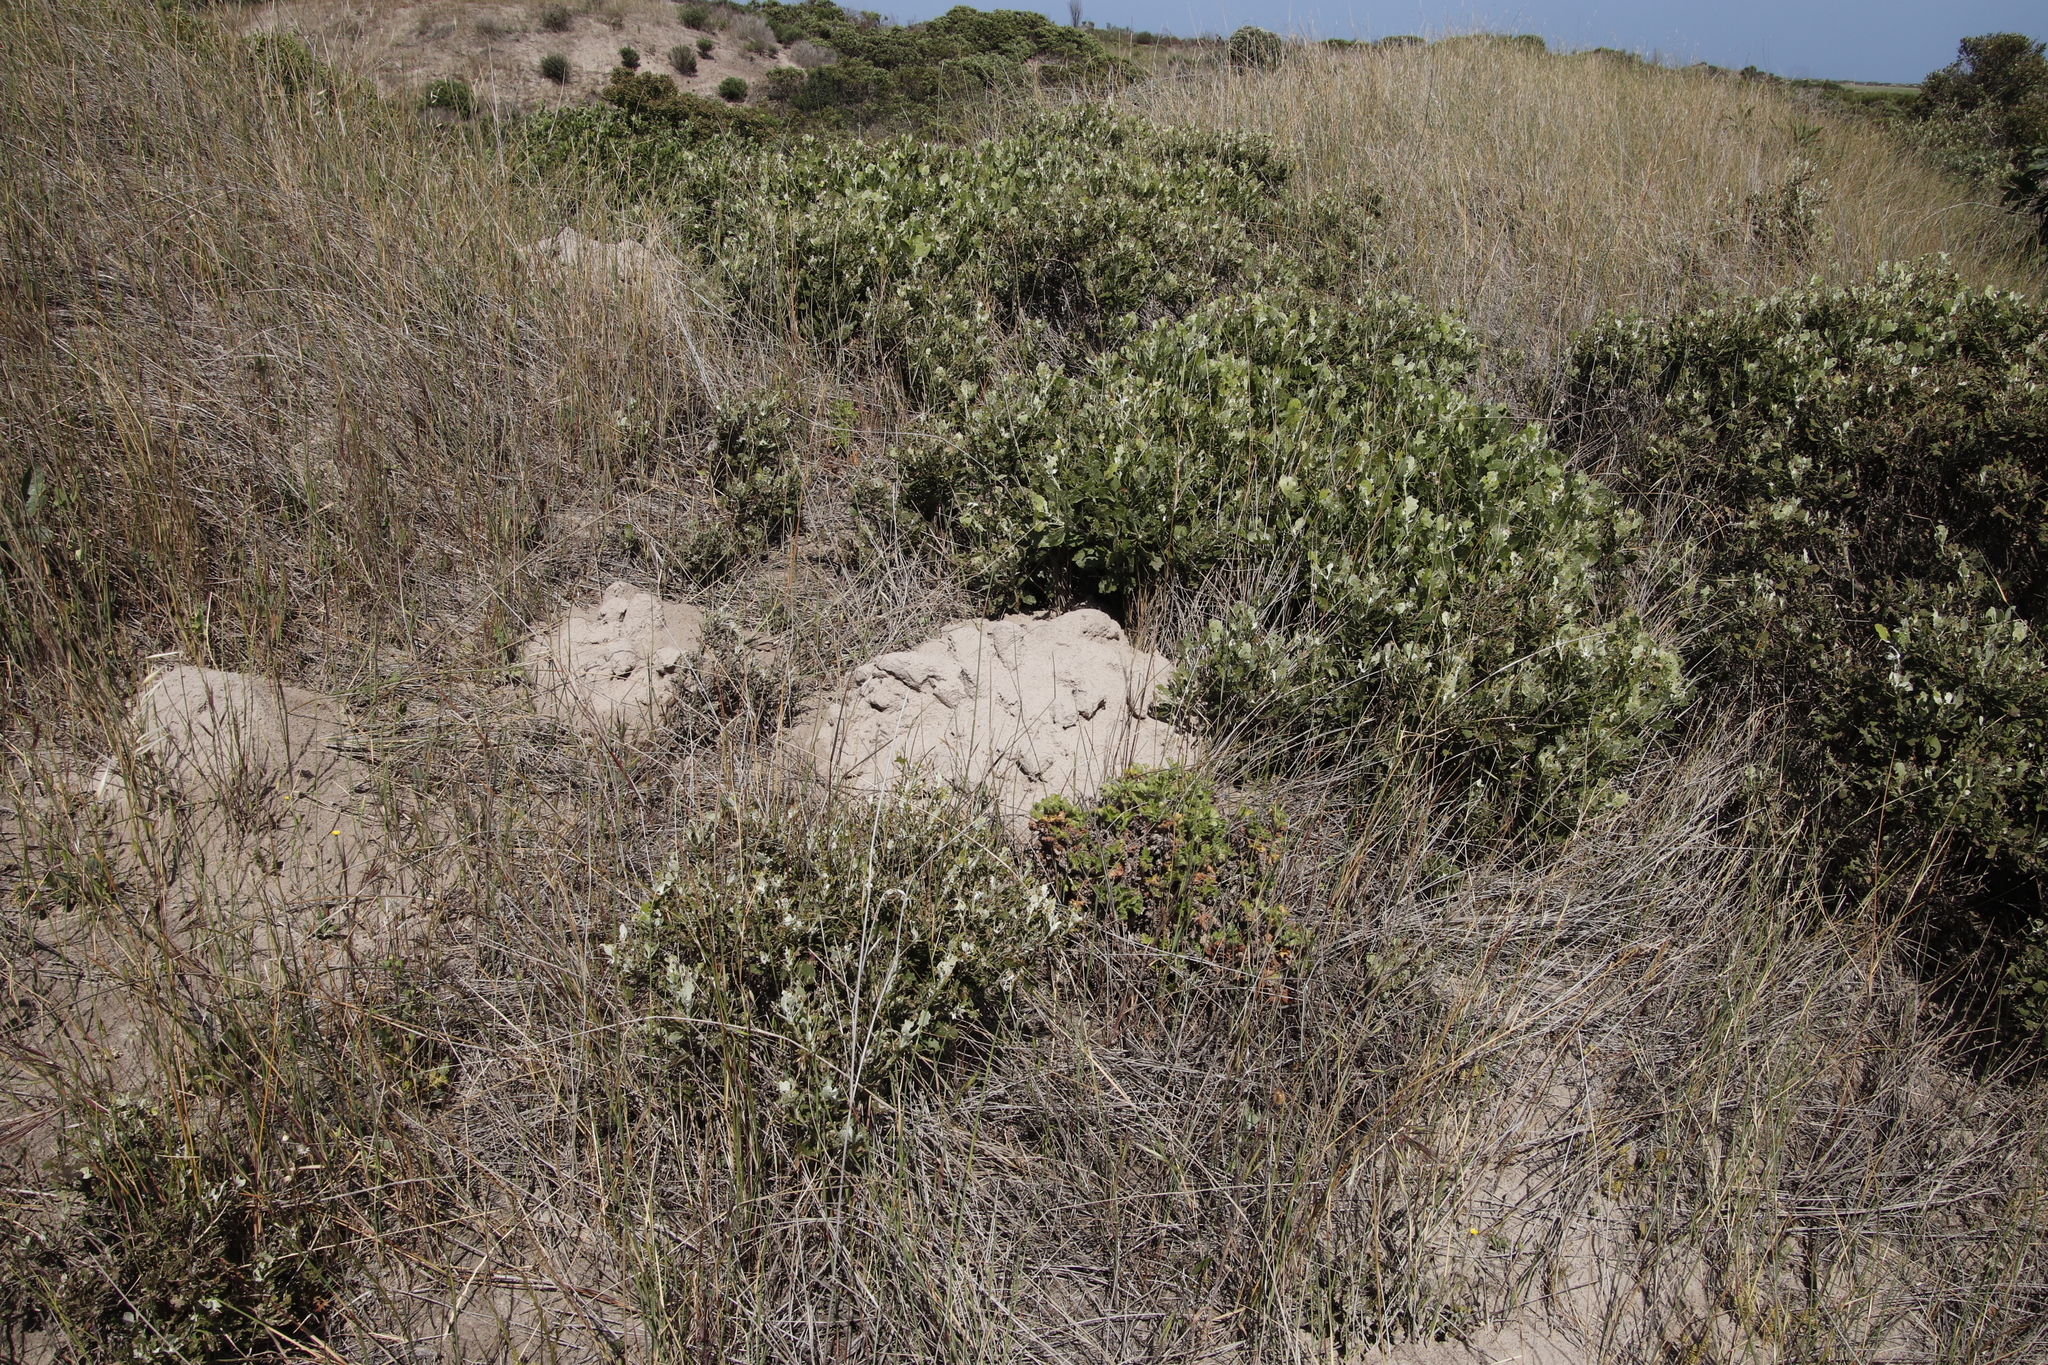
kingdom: Animalia
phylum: Chordata
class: Mammalia
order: Rodentia
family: Bathyergidae
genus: Bathyergus
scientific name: Bathyergus suillus
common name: Cape dune mole rat
